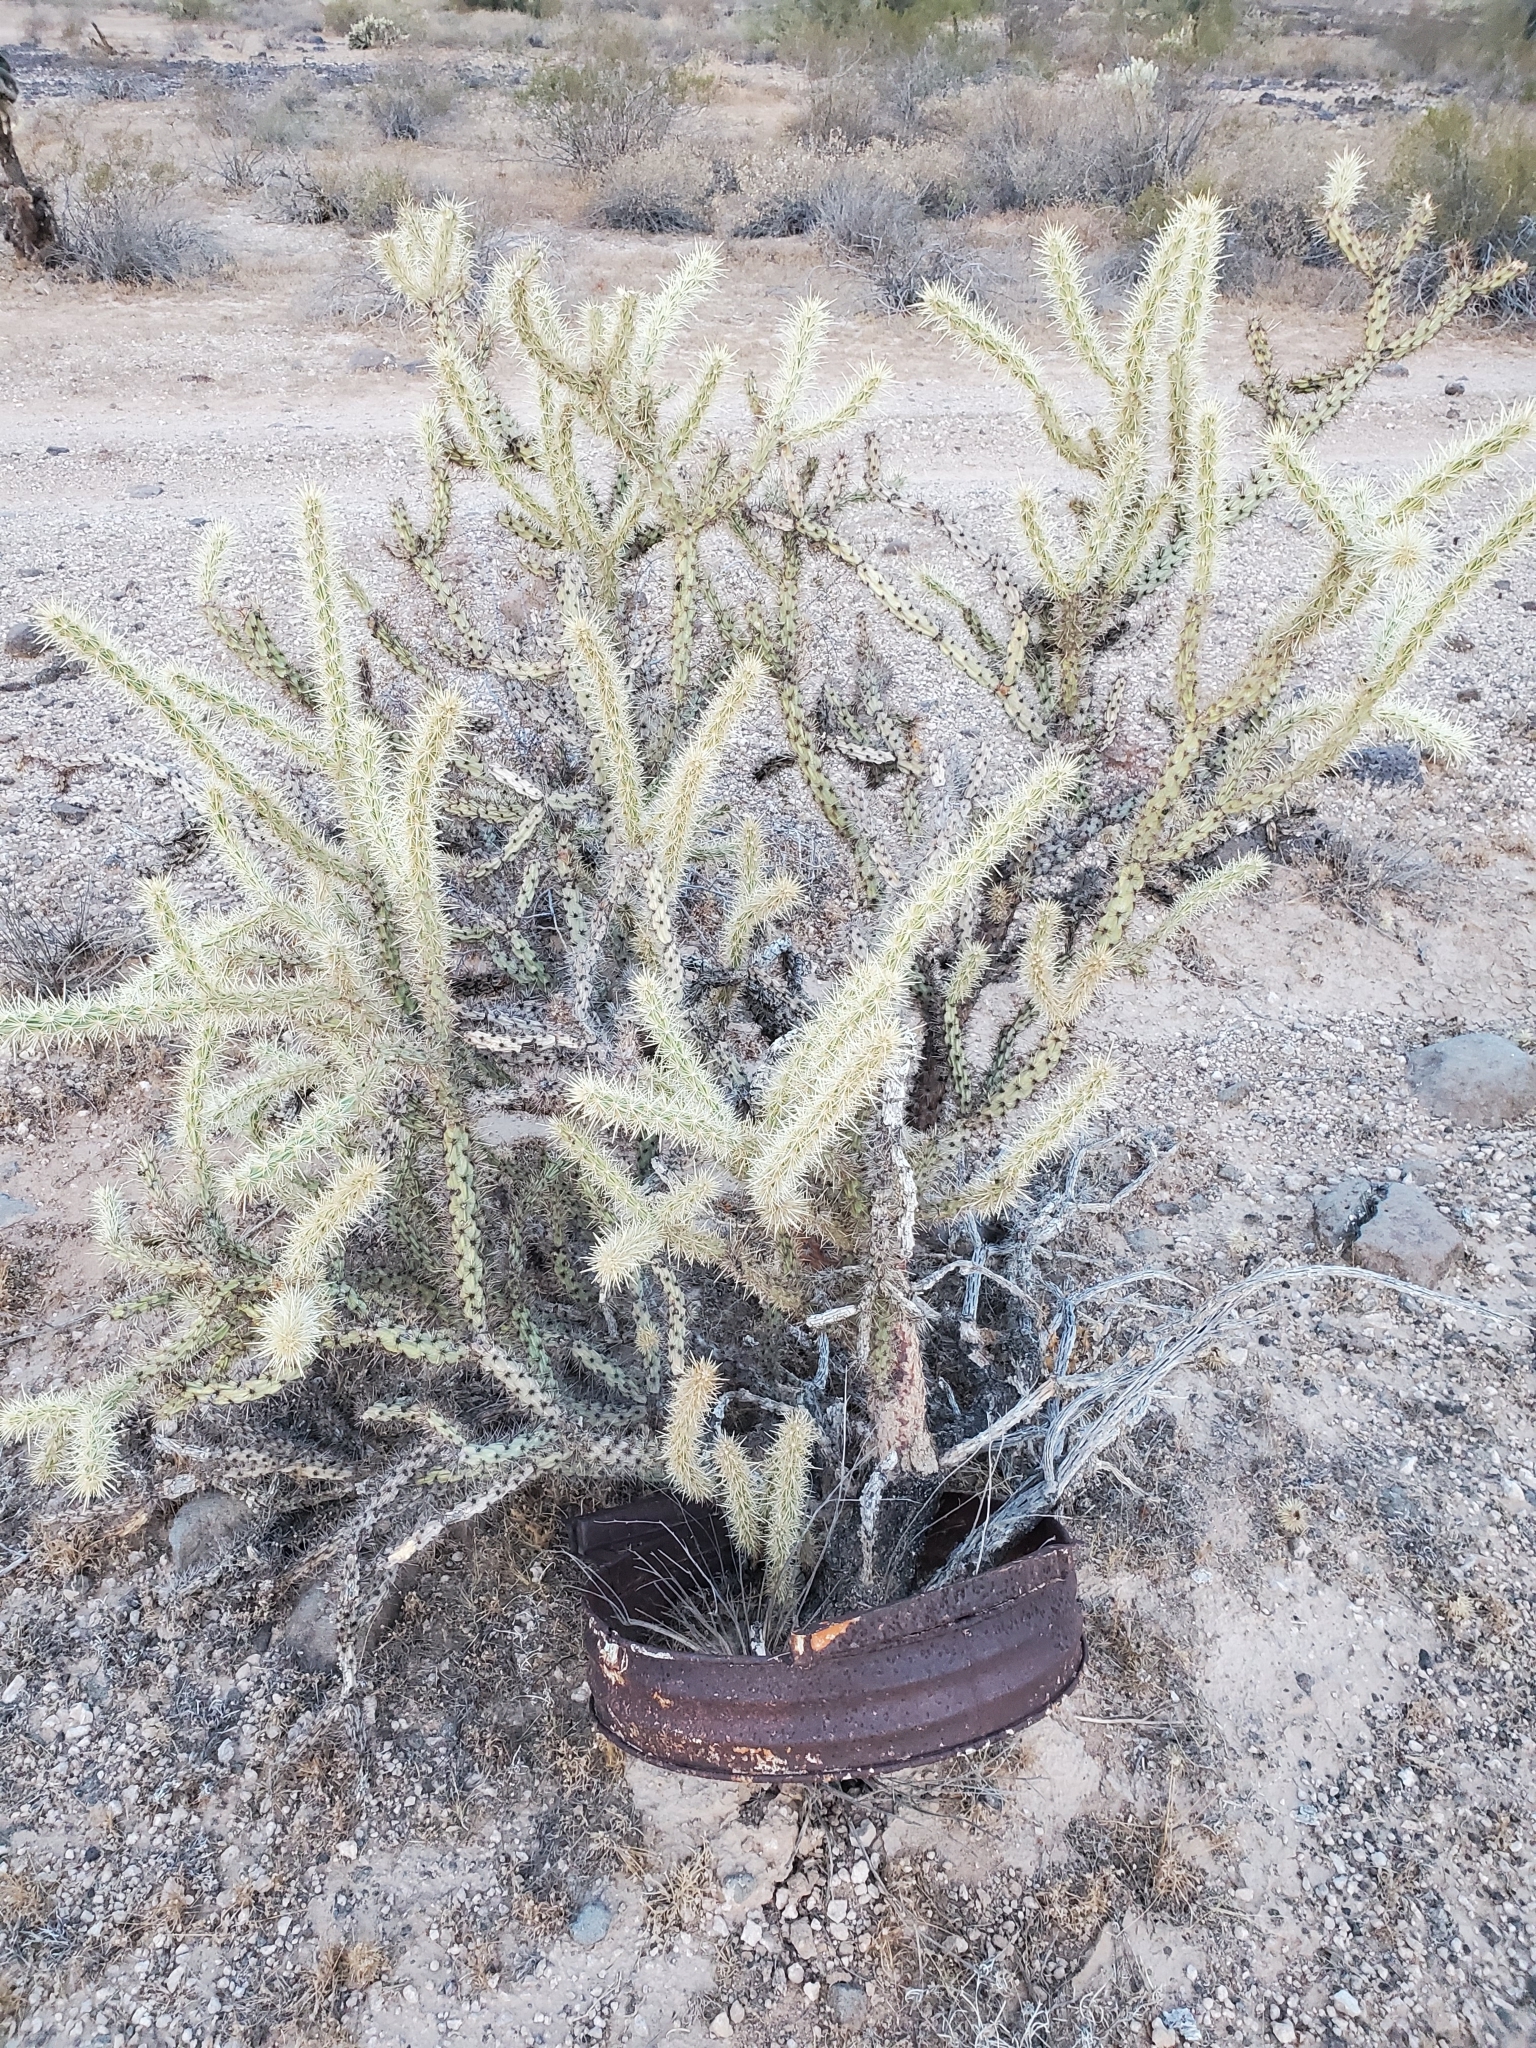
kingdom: Plantae
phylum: Tracheophyta
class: Magnoliopsida
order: Caryophyllales
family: Cactaceae
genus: Cylindropuntia
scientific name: Cylindropuntia acanthocarpa
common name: Buckhorn cholla
